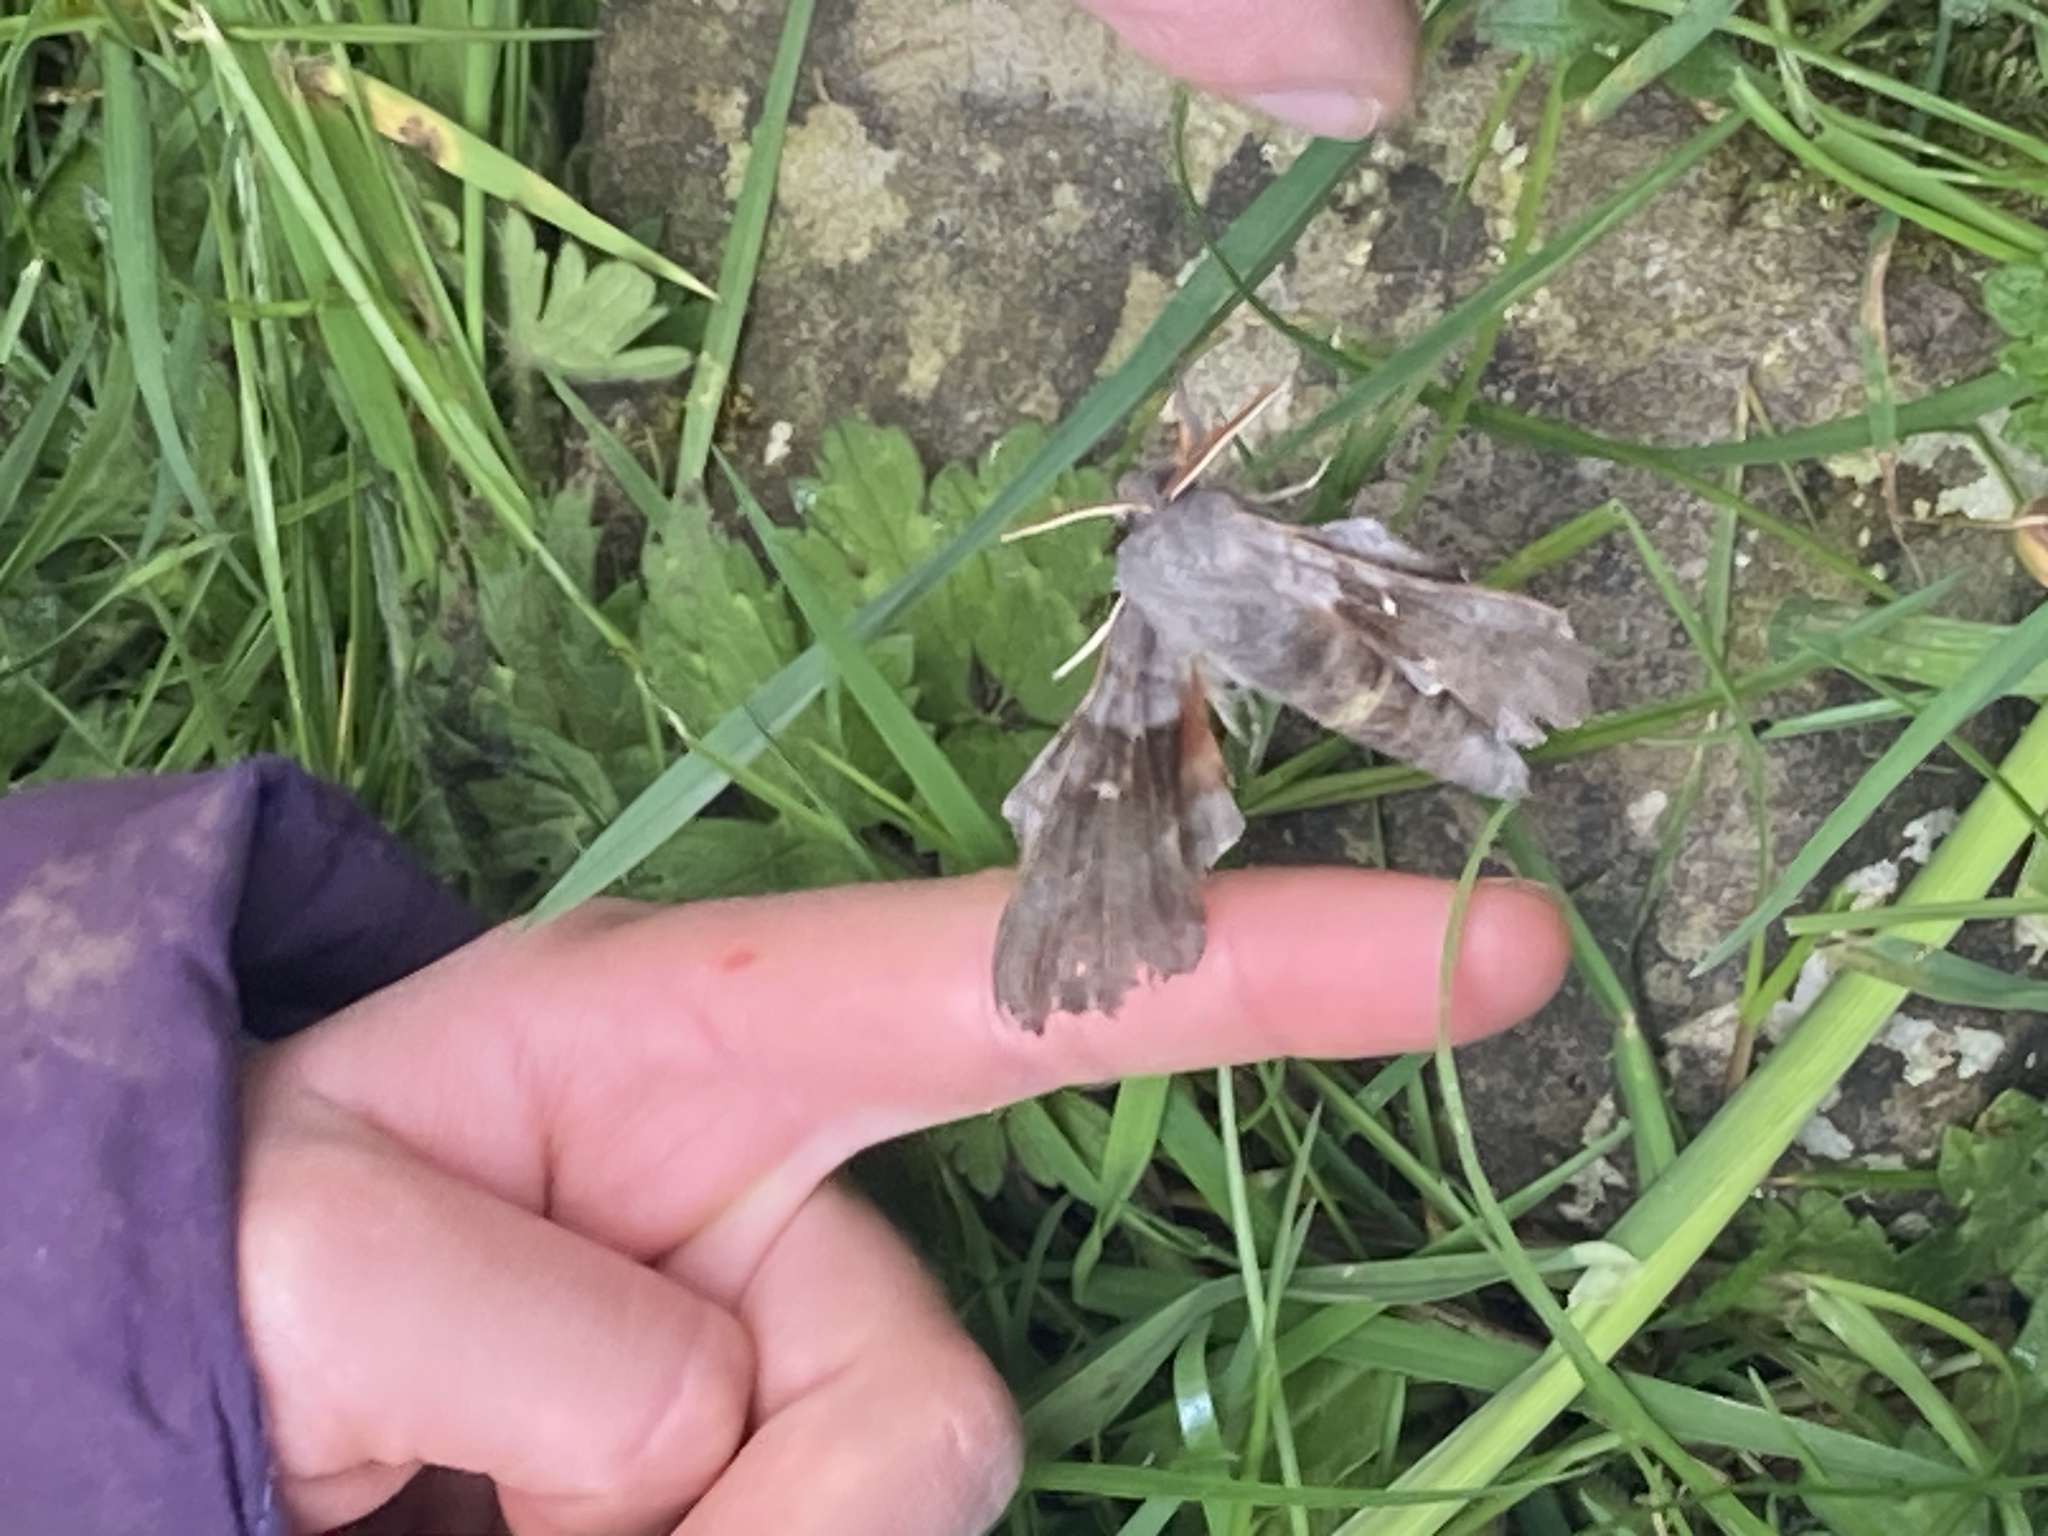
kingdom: Animalia
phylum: Arthropoda
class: Insecta
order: Lepidoptera
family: Sphingidae
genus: Laothoe
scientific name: Laothoe populi
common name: Poplar hawk-moth
